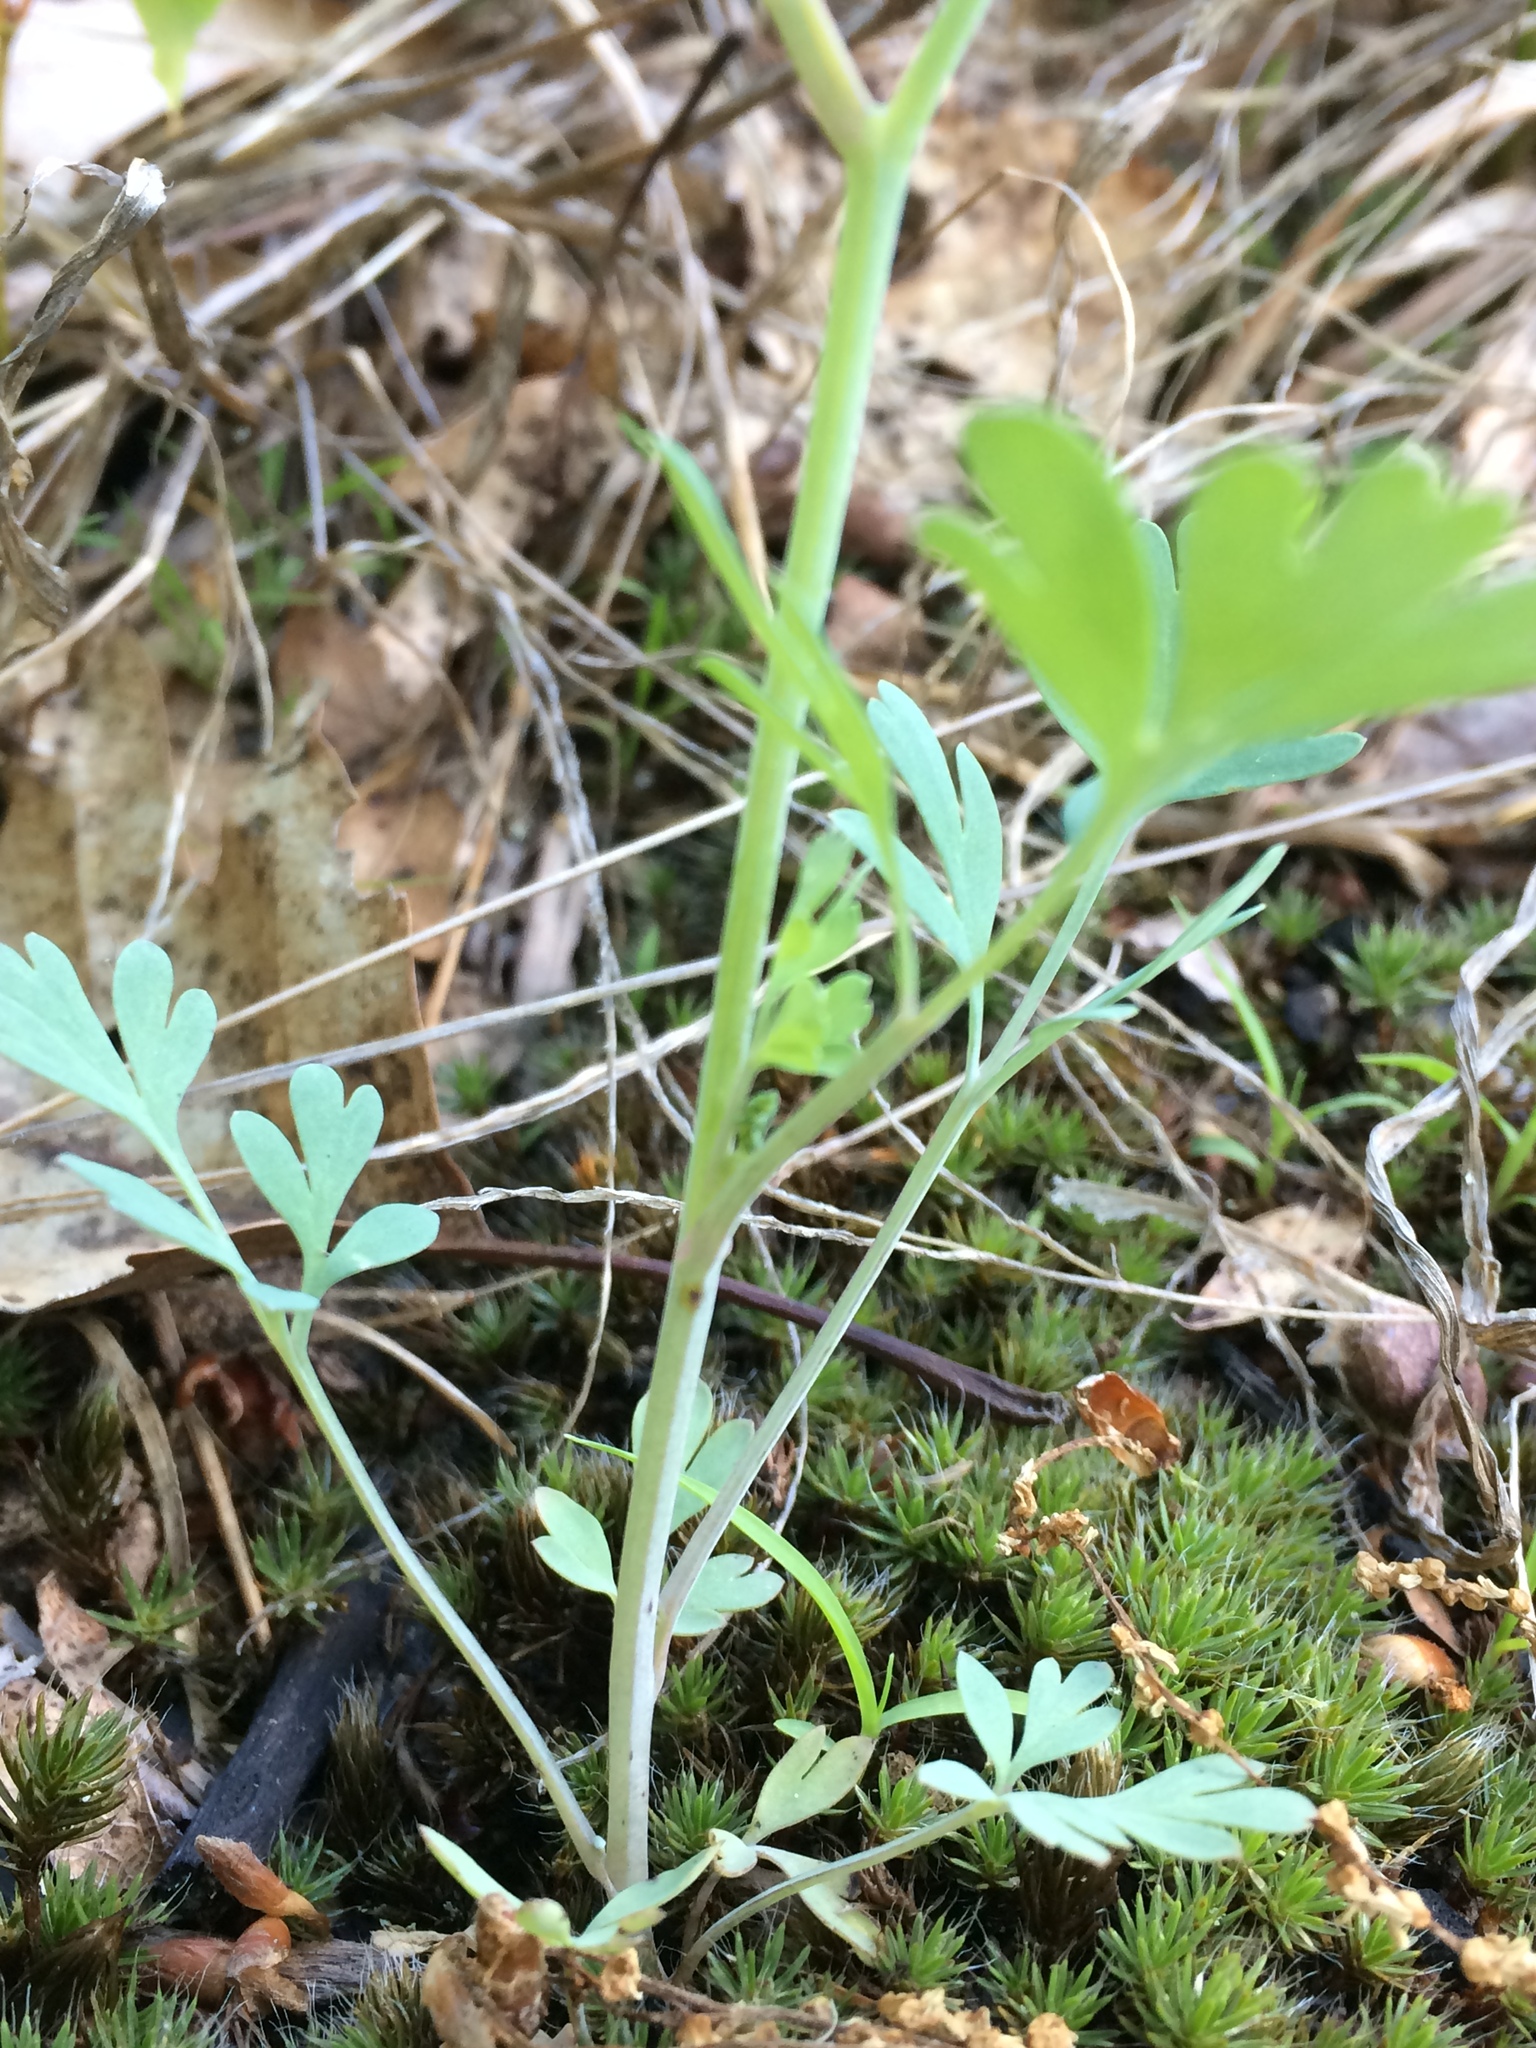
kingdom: Plantae
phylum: Tracheophyta
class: Magnoliopsida
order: Ranunculales
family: Papaveraceae
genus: Capnoides
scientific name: Capnoides sempervirens
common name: Rock harlequin
